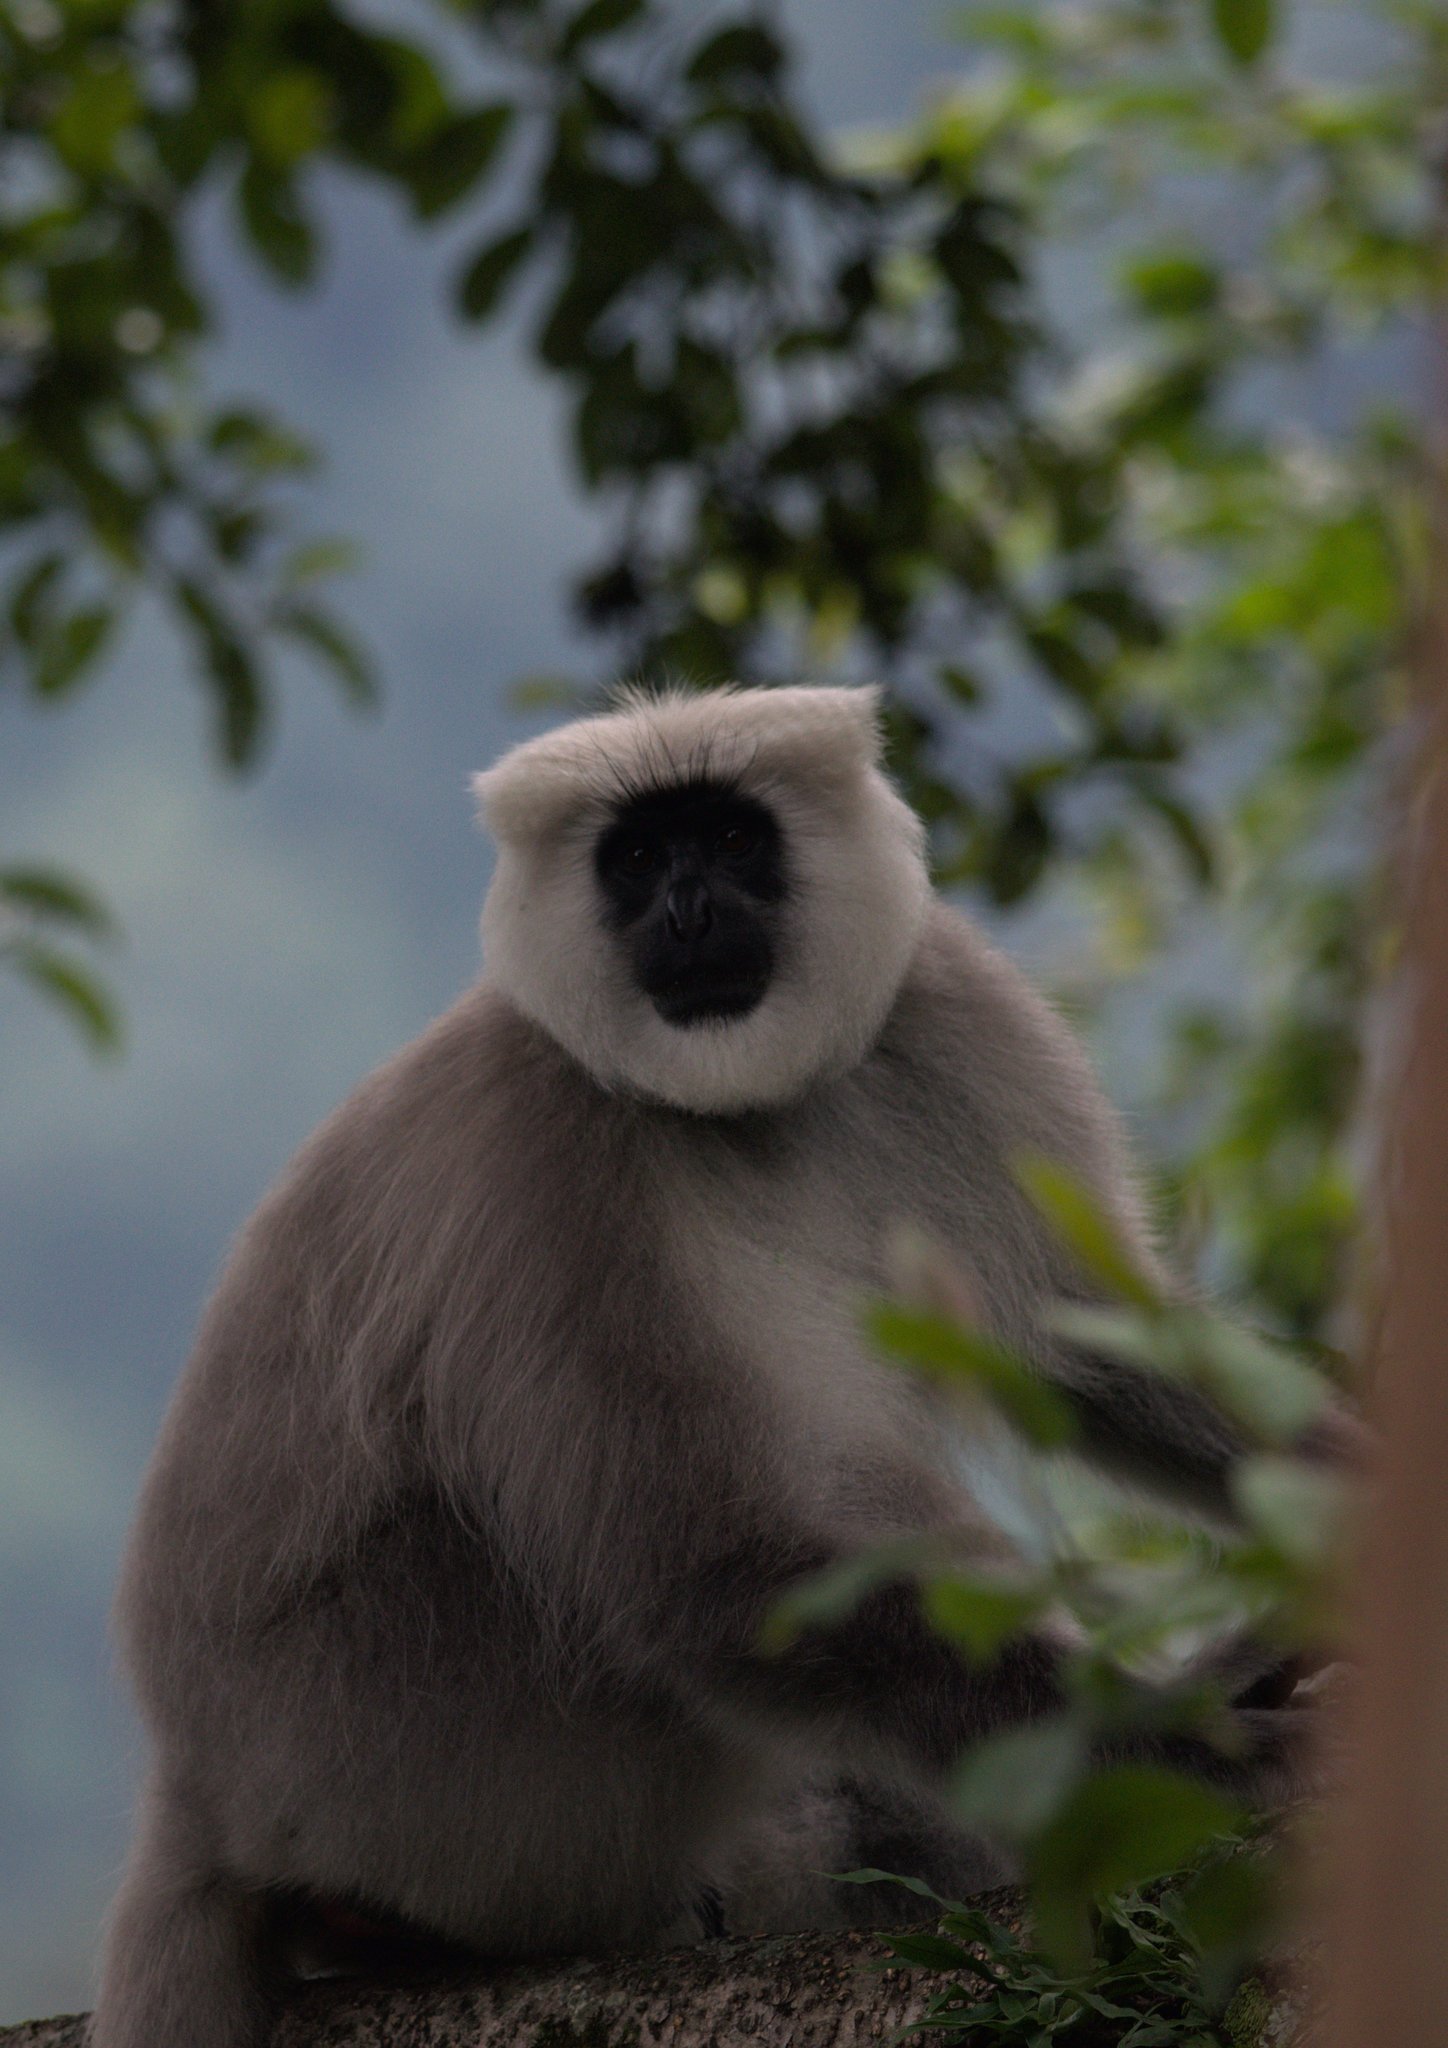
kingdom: Animalia
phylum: Chordata
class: Mammalia
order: Primates
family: Cercopithecidae
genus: Semnopithecus
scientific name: Semnopithecus schistaceus
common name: Nepal gray langur
